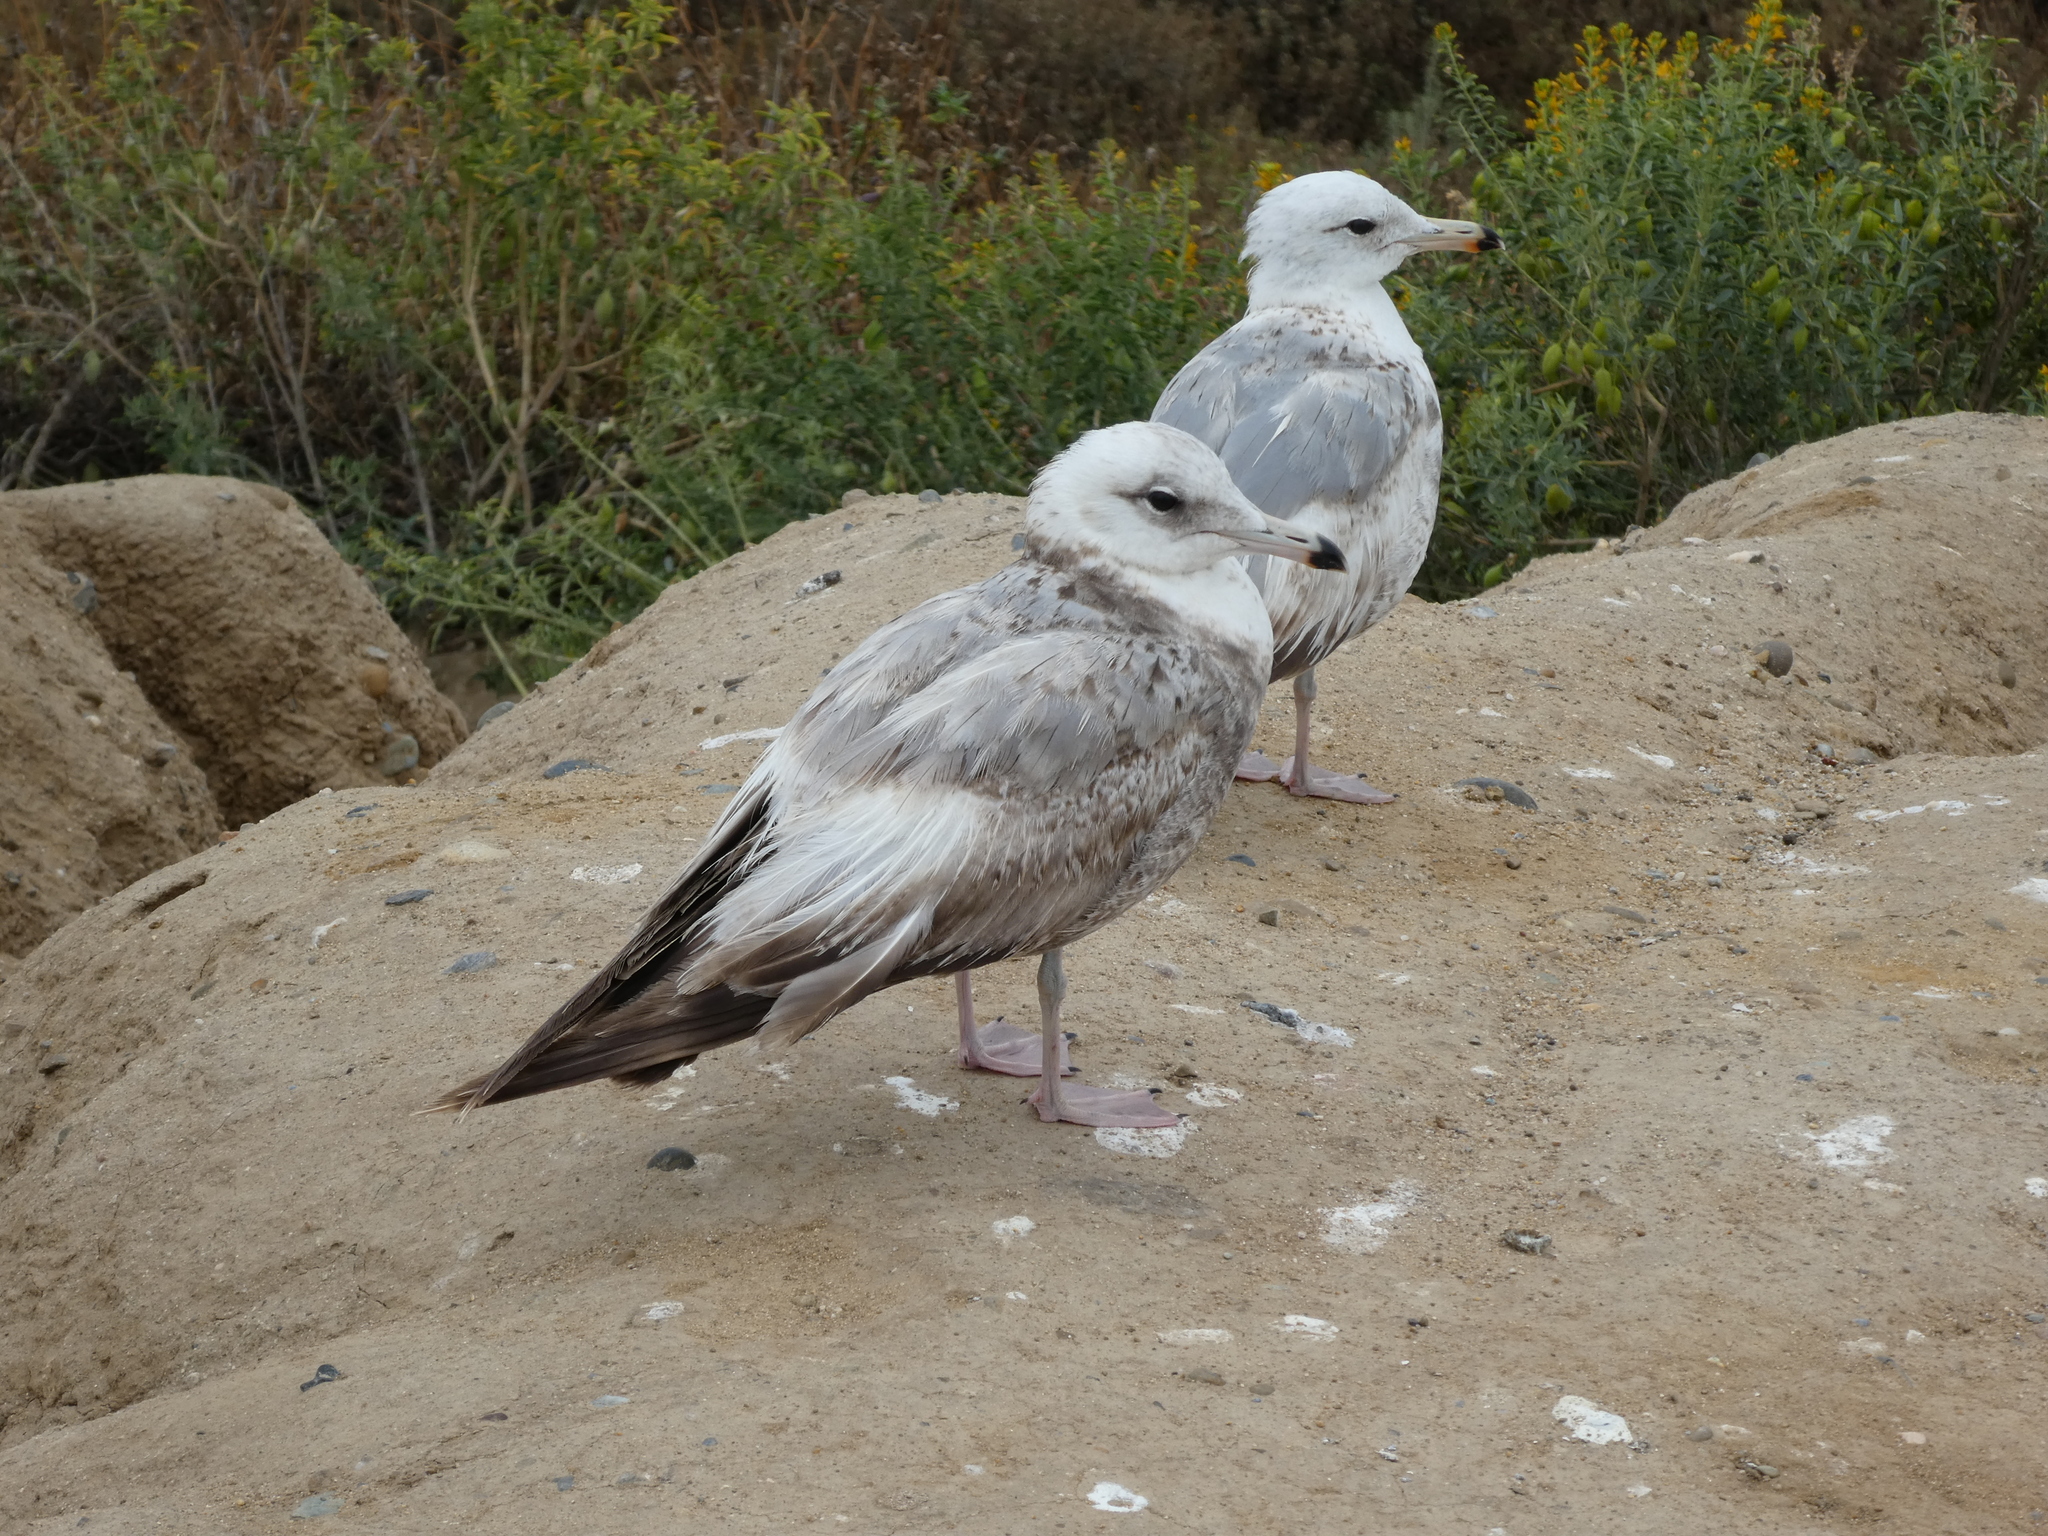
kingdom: Animalia
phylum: Chordata
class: Aves
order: Charadriiformes
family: Laridae
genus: Larus
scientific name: Larus californicus
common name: California gull
